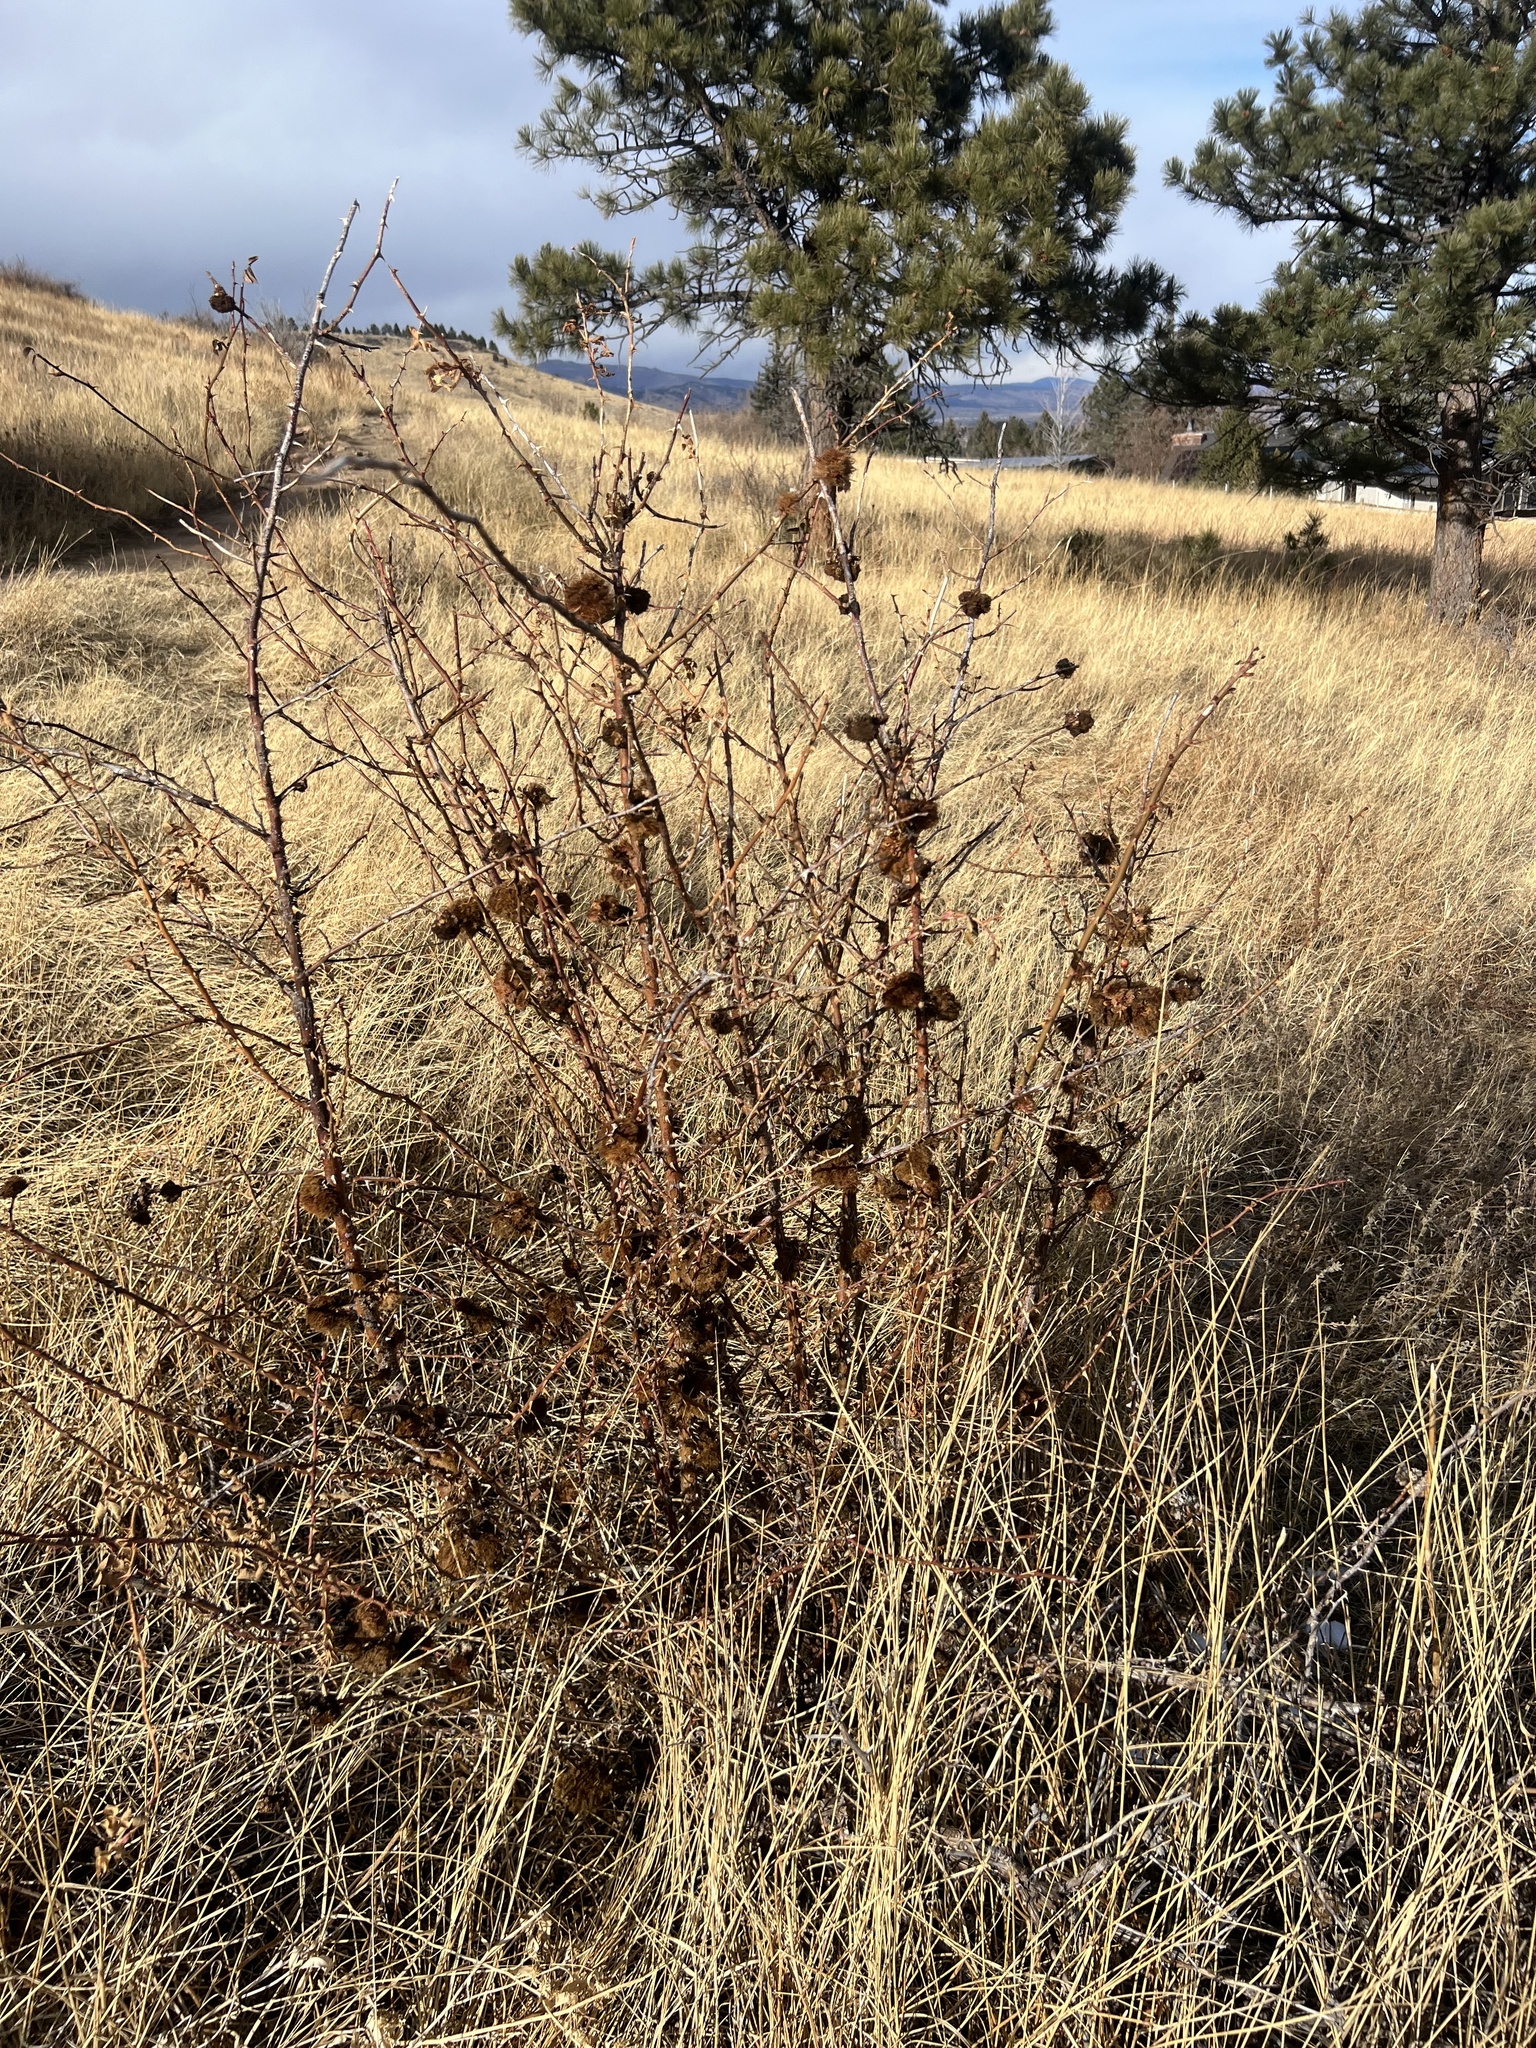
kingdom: Animalia
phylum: Arthropoda
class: Insecta
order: Hymenoptera
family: Cynipidae
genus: Diplolepis
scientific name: Diplolepis rosae
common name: Bedeguar gall
